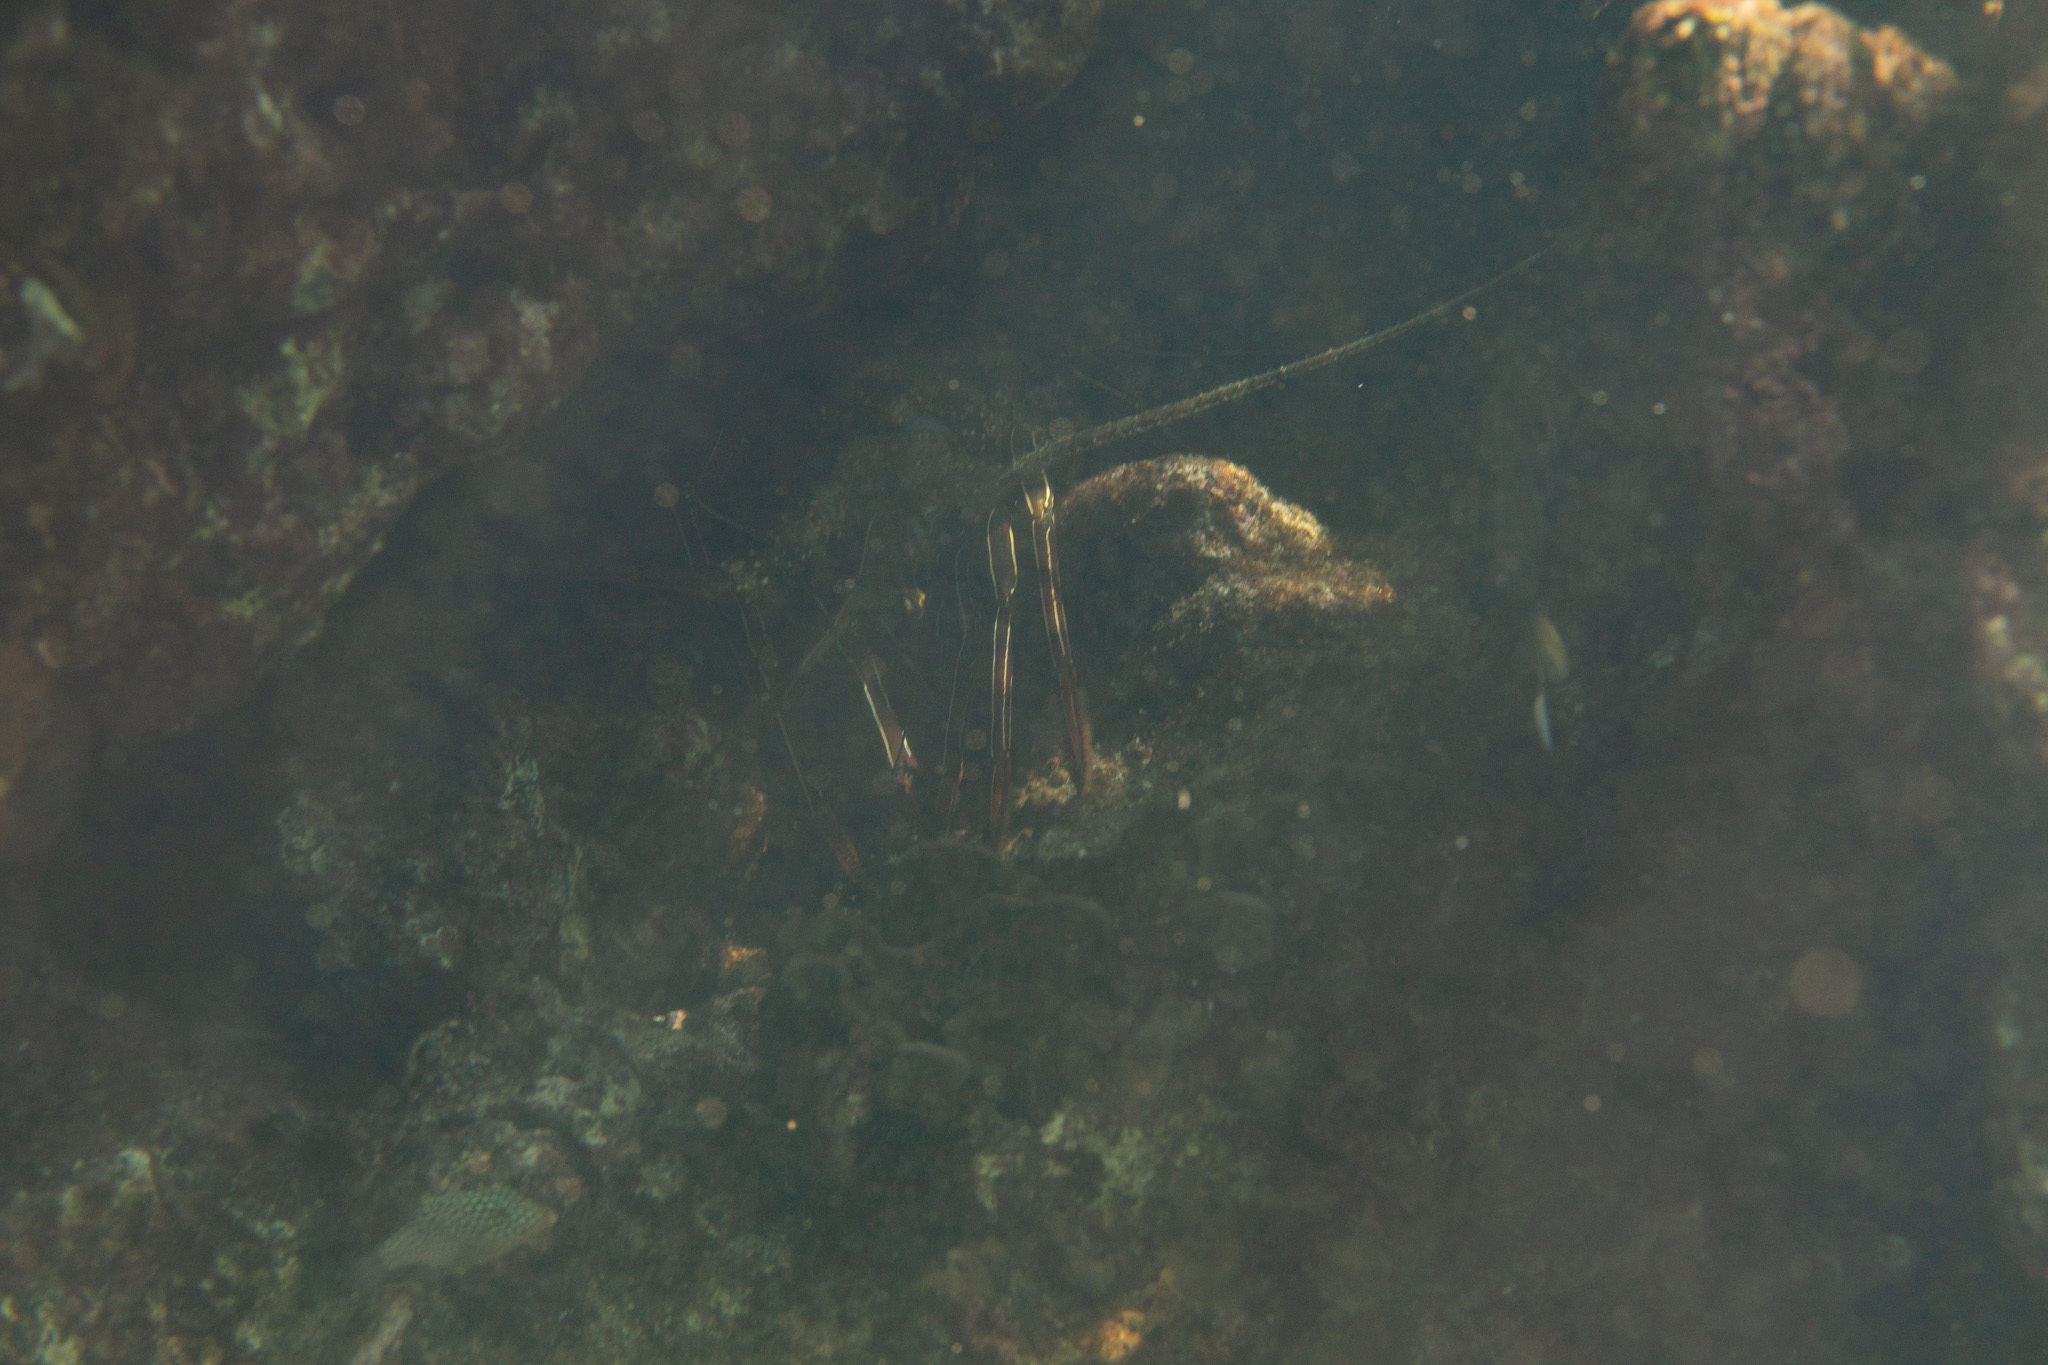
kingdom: Animalia
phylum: Arthropoda
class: Malacostraca
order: Decapoda
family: Palinuridae
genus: Panulirus
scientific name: Panulirus penicillatus
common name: Pronghorn spiny lobster
